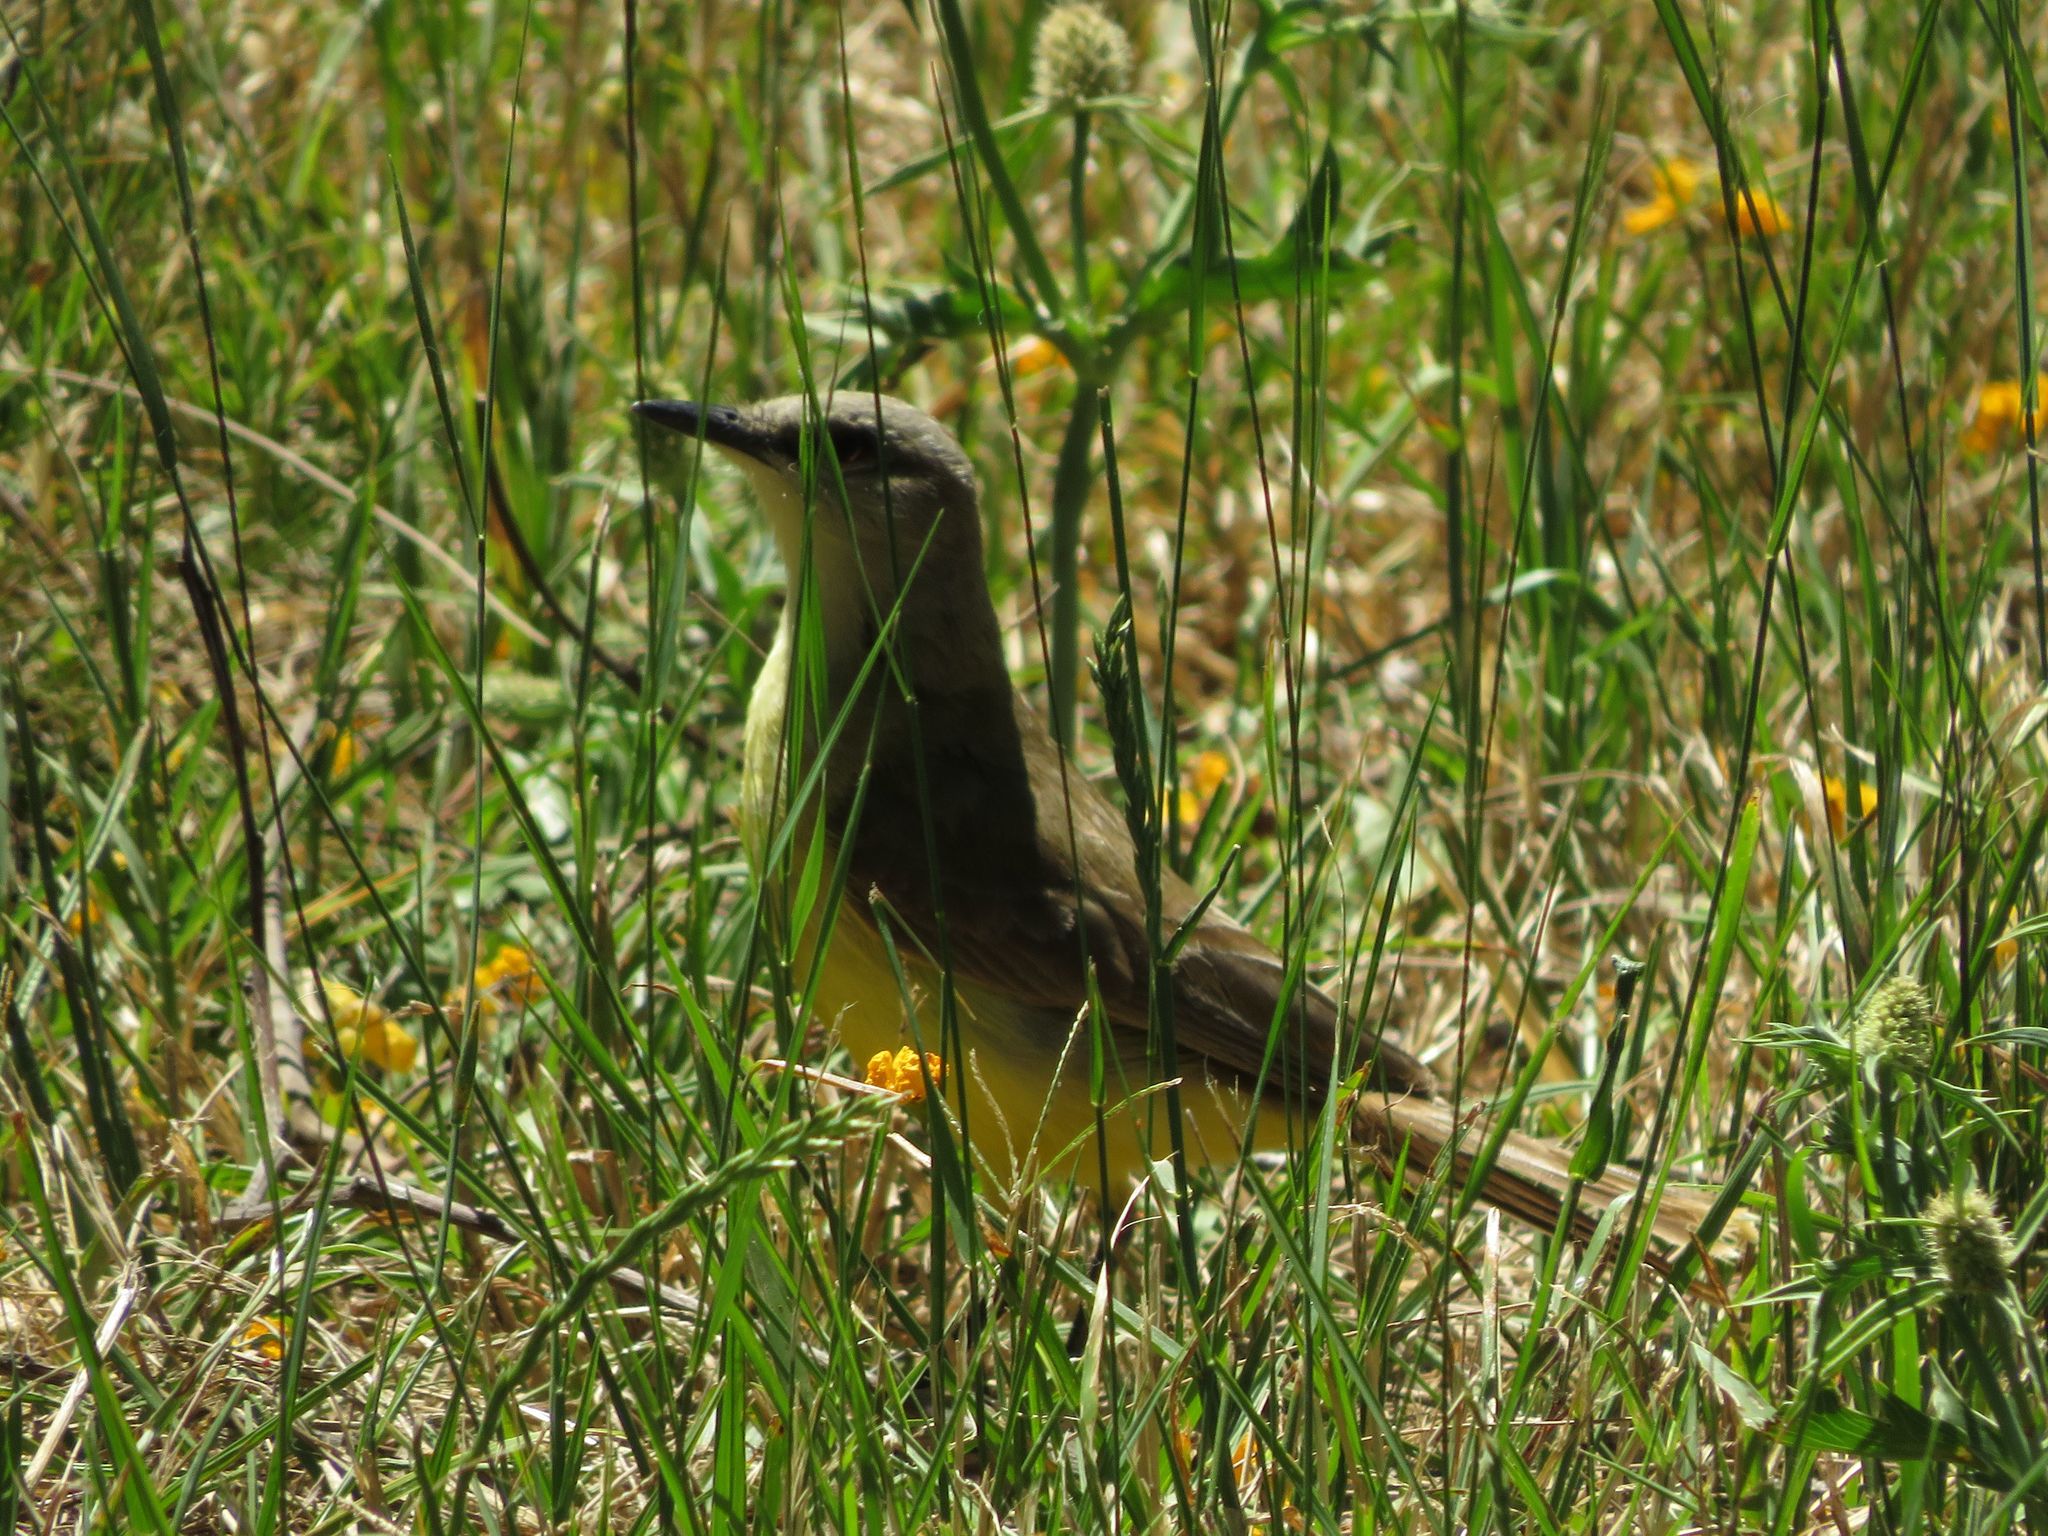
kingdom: Animalia
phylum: Chordata
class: Aves
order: Passeriformes
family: Tyrannidae
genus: Machetornis
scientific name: Machetornis rixosa
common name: Cattle tyrant
